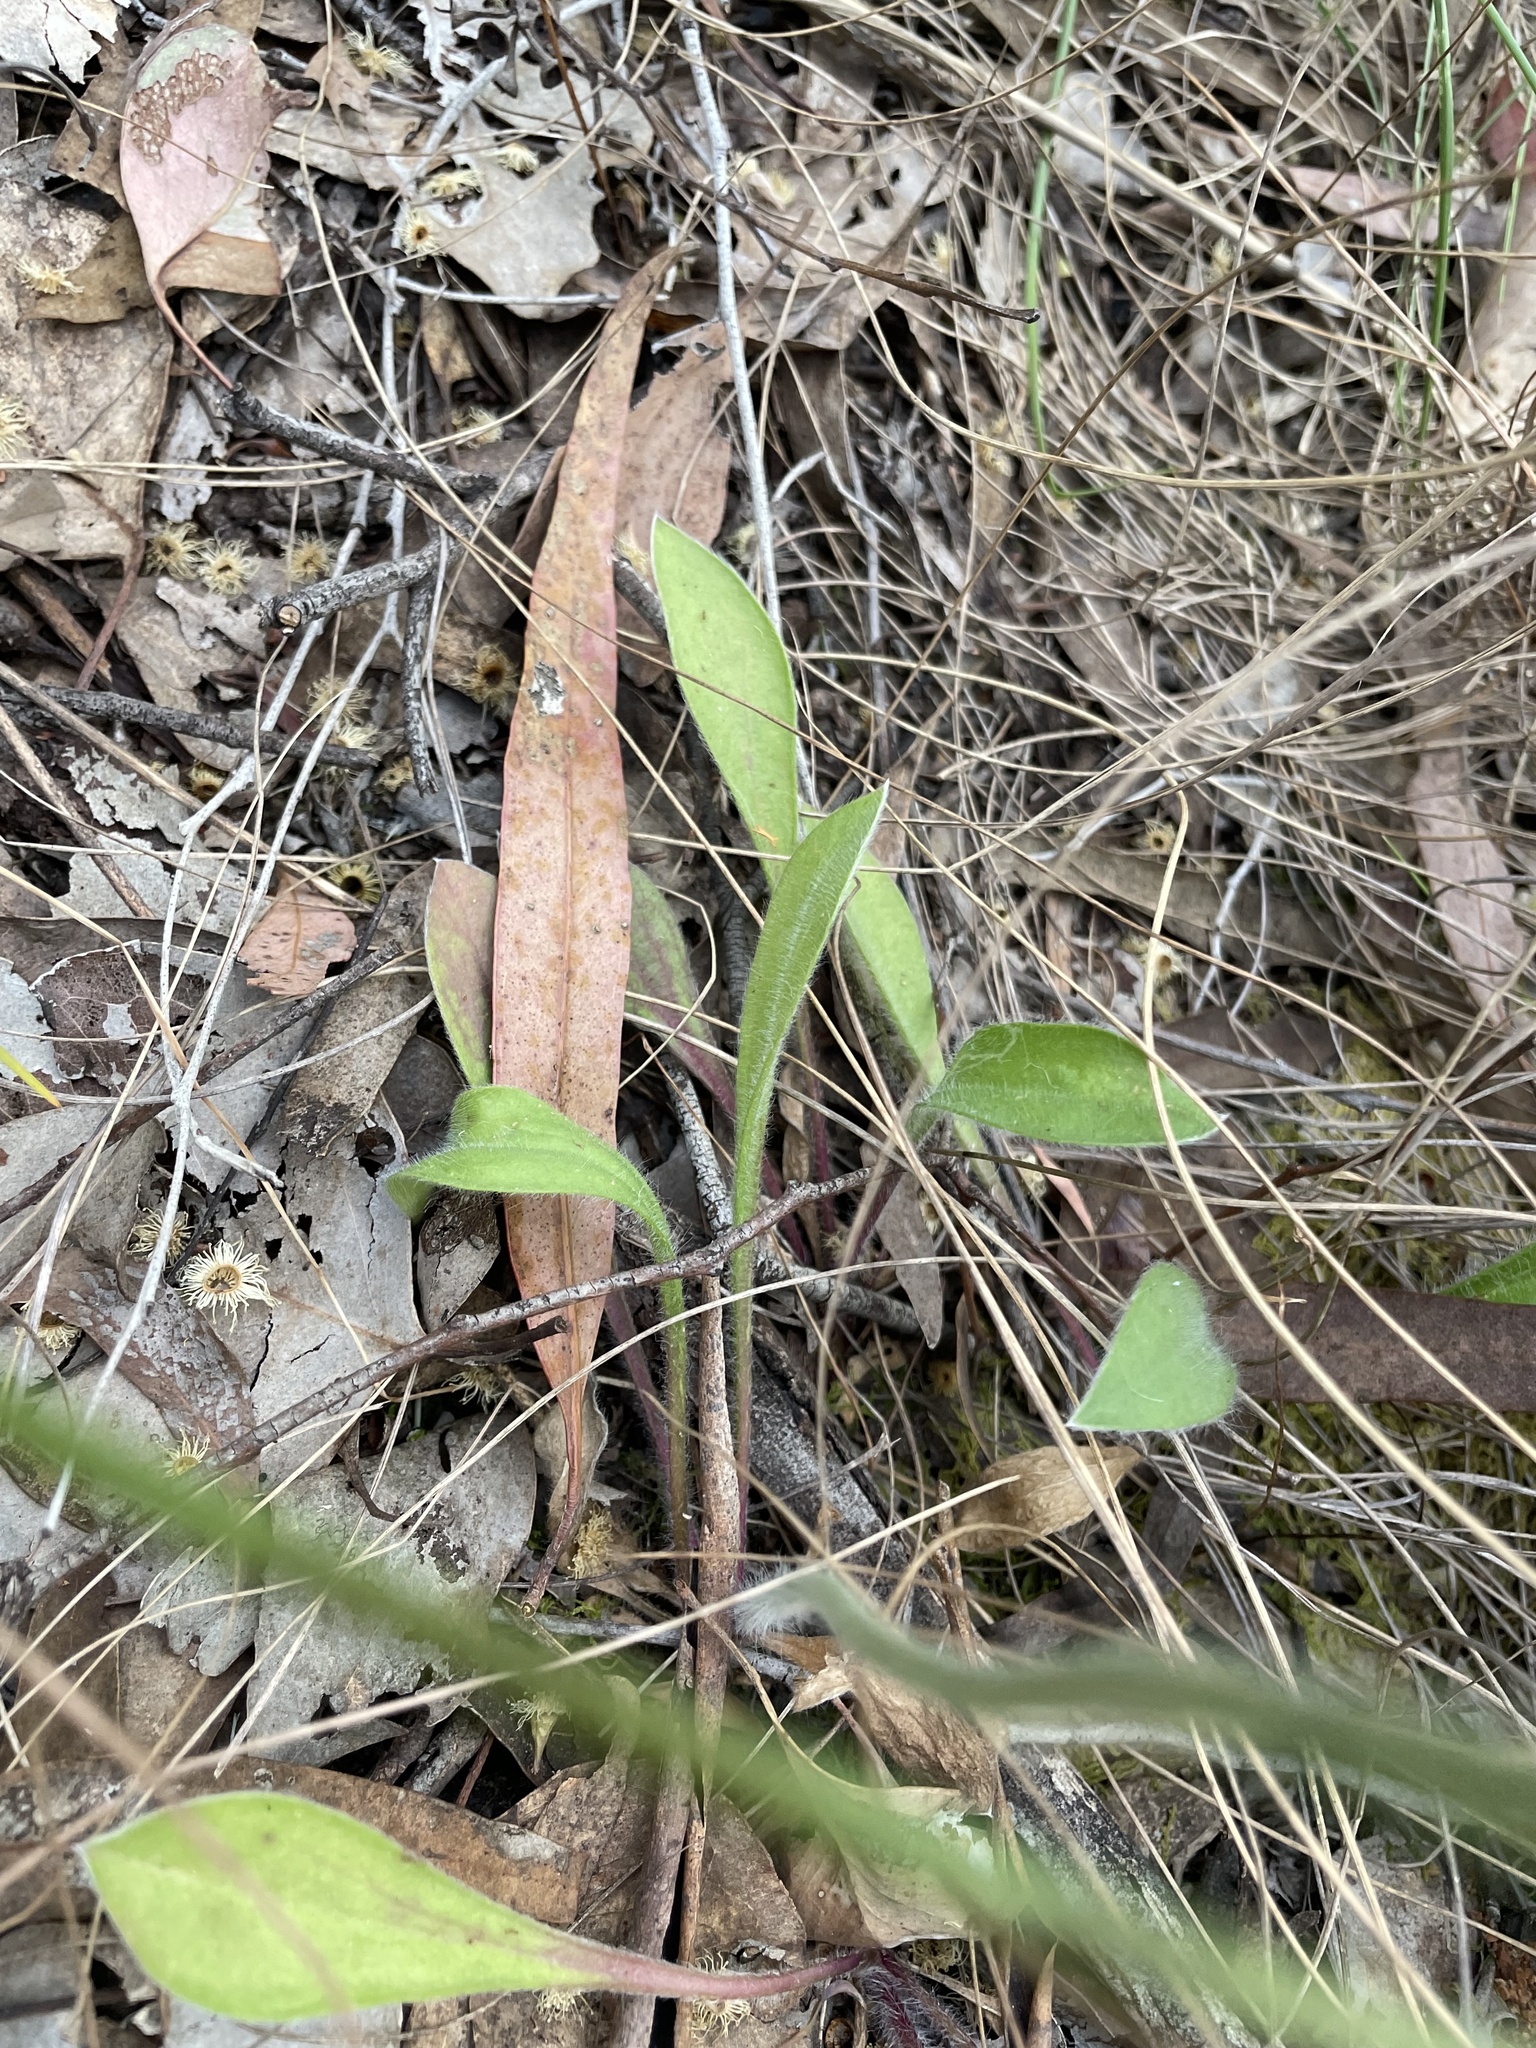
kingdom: Plantae
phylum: Tracheophyta
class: Magnoliopsida
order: Asterales
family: Goodeniaceae
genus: Brunonia
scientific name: Brunonia australis
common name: Blue pincushion
